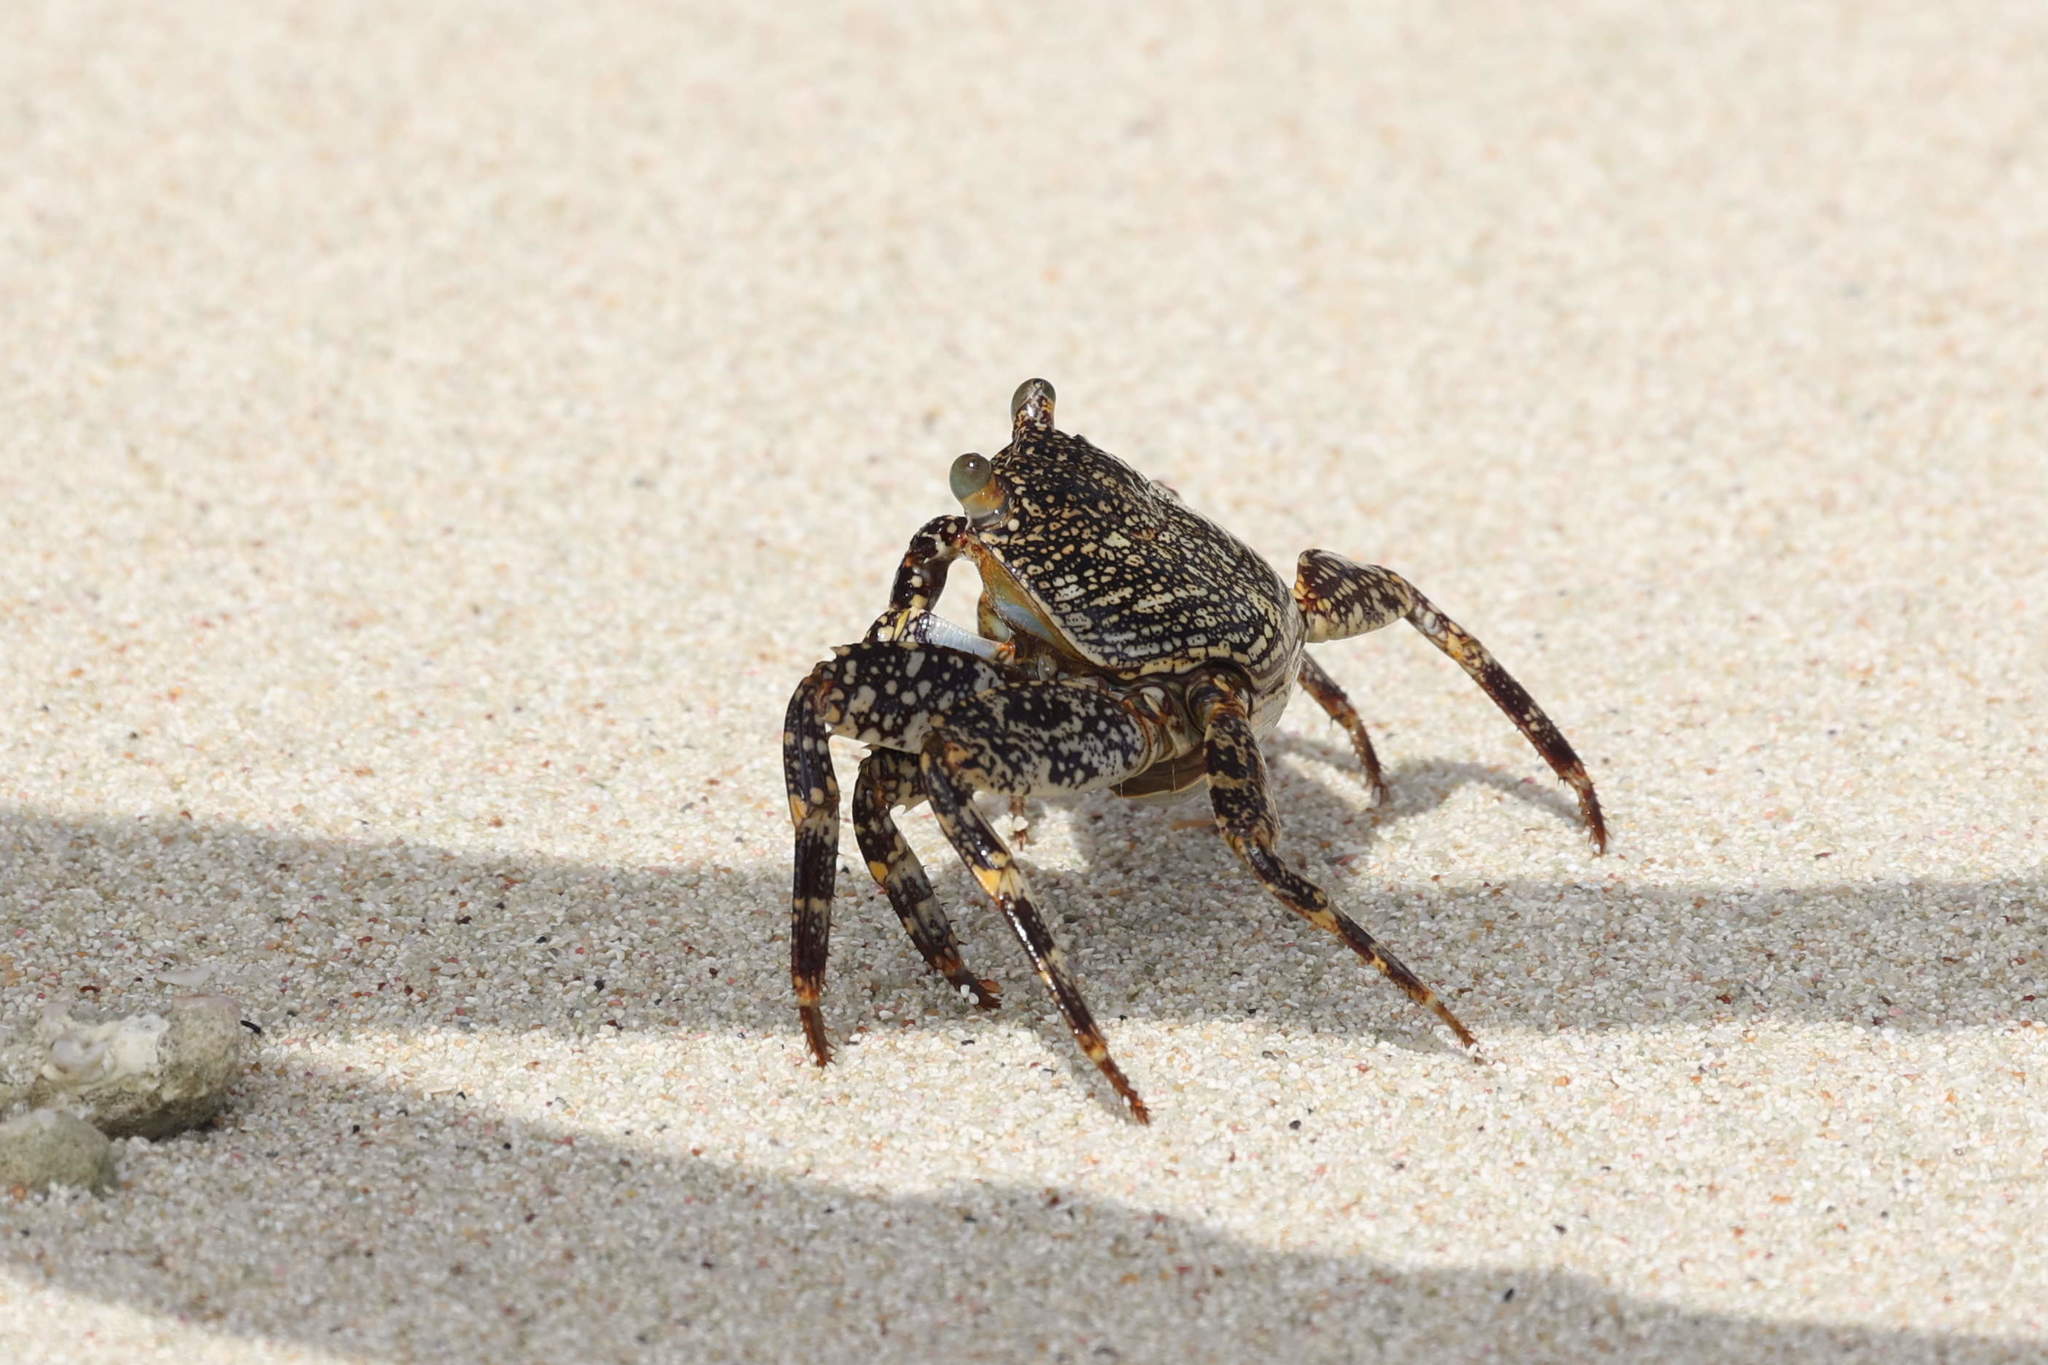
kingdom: Animalia
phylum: Arthropoda
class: Malacostraca
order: Decapoda
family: Grapsidae
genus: Grapsus
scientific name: Grapsus grapsus
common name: Sally lightfoot
